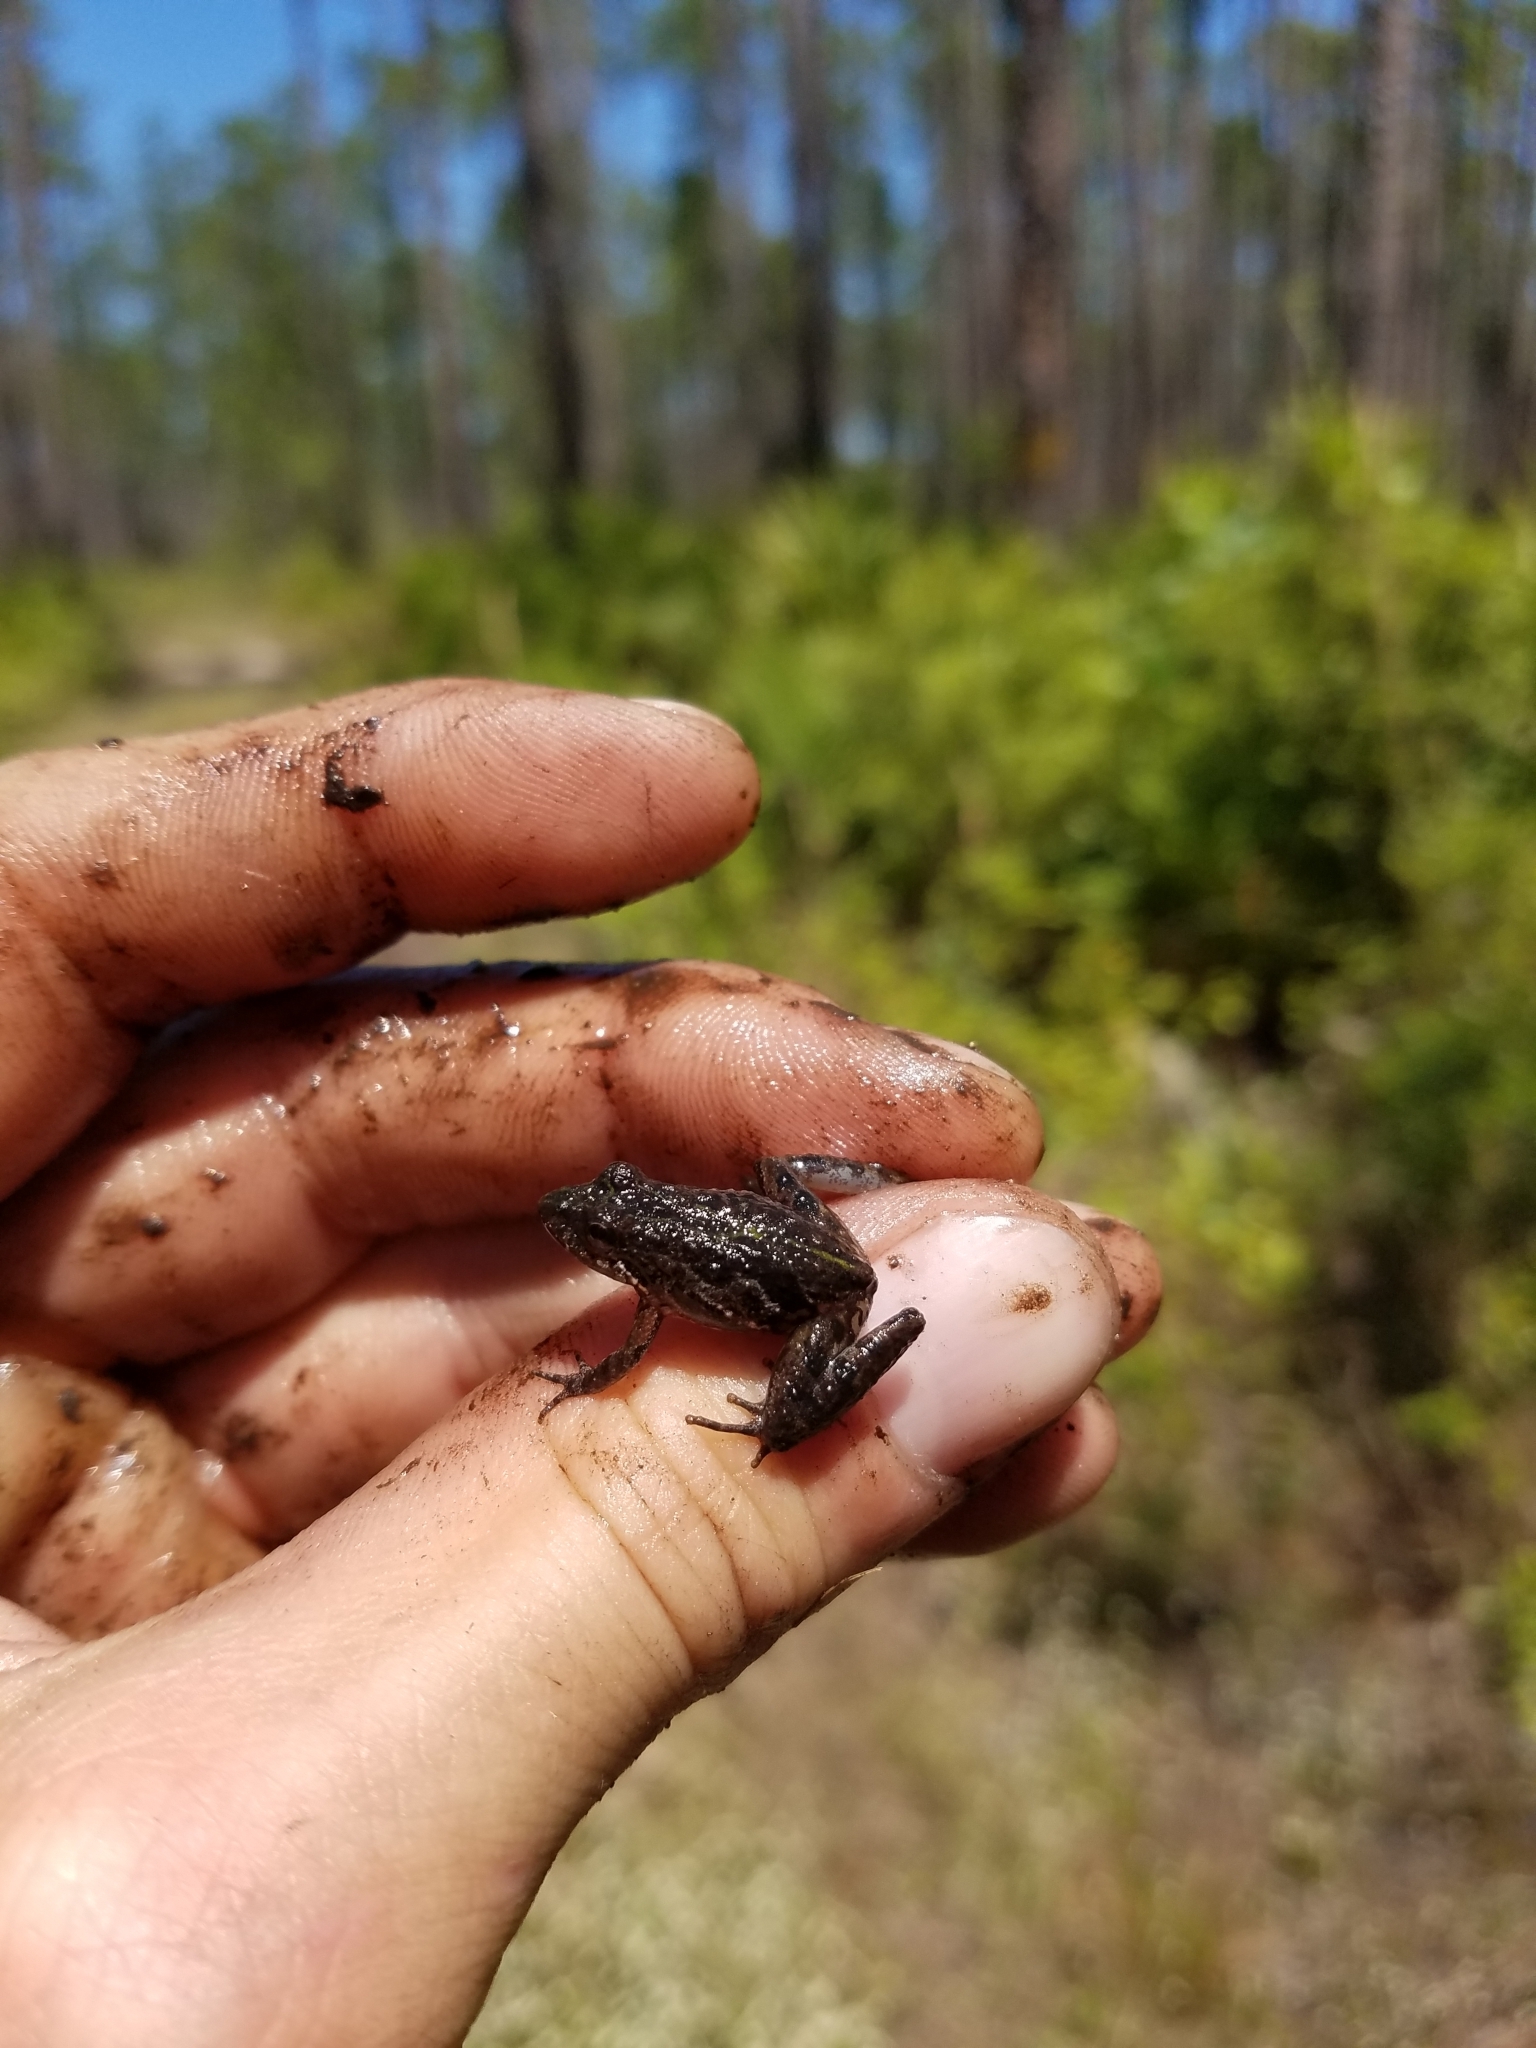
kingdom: Animalia
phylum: Chordata
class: Amphibia
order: Anura
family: Hylidae
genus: Acris
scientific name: Acris gryllus
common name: Southern cricket frog
